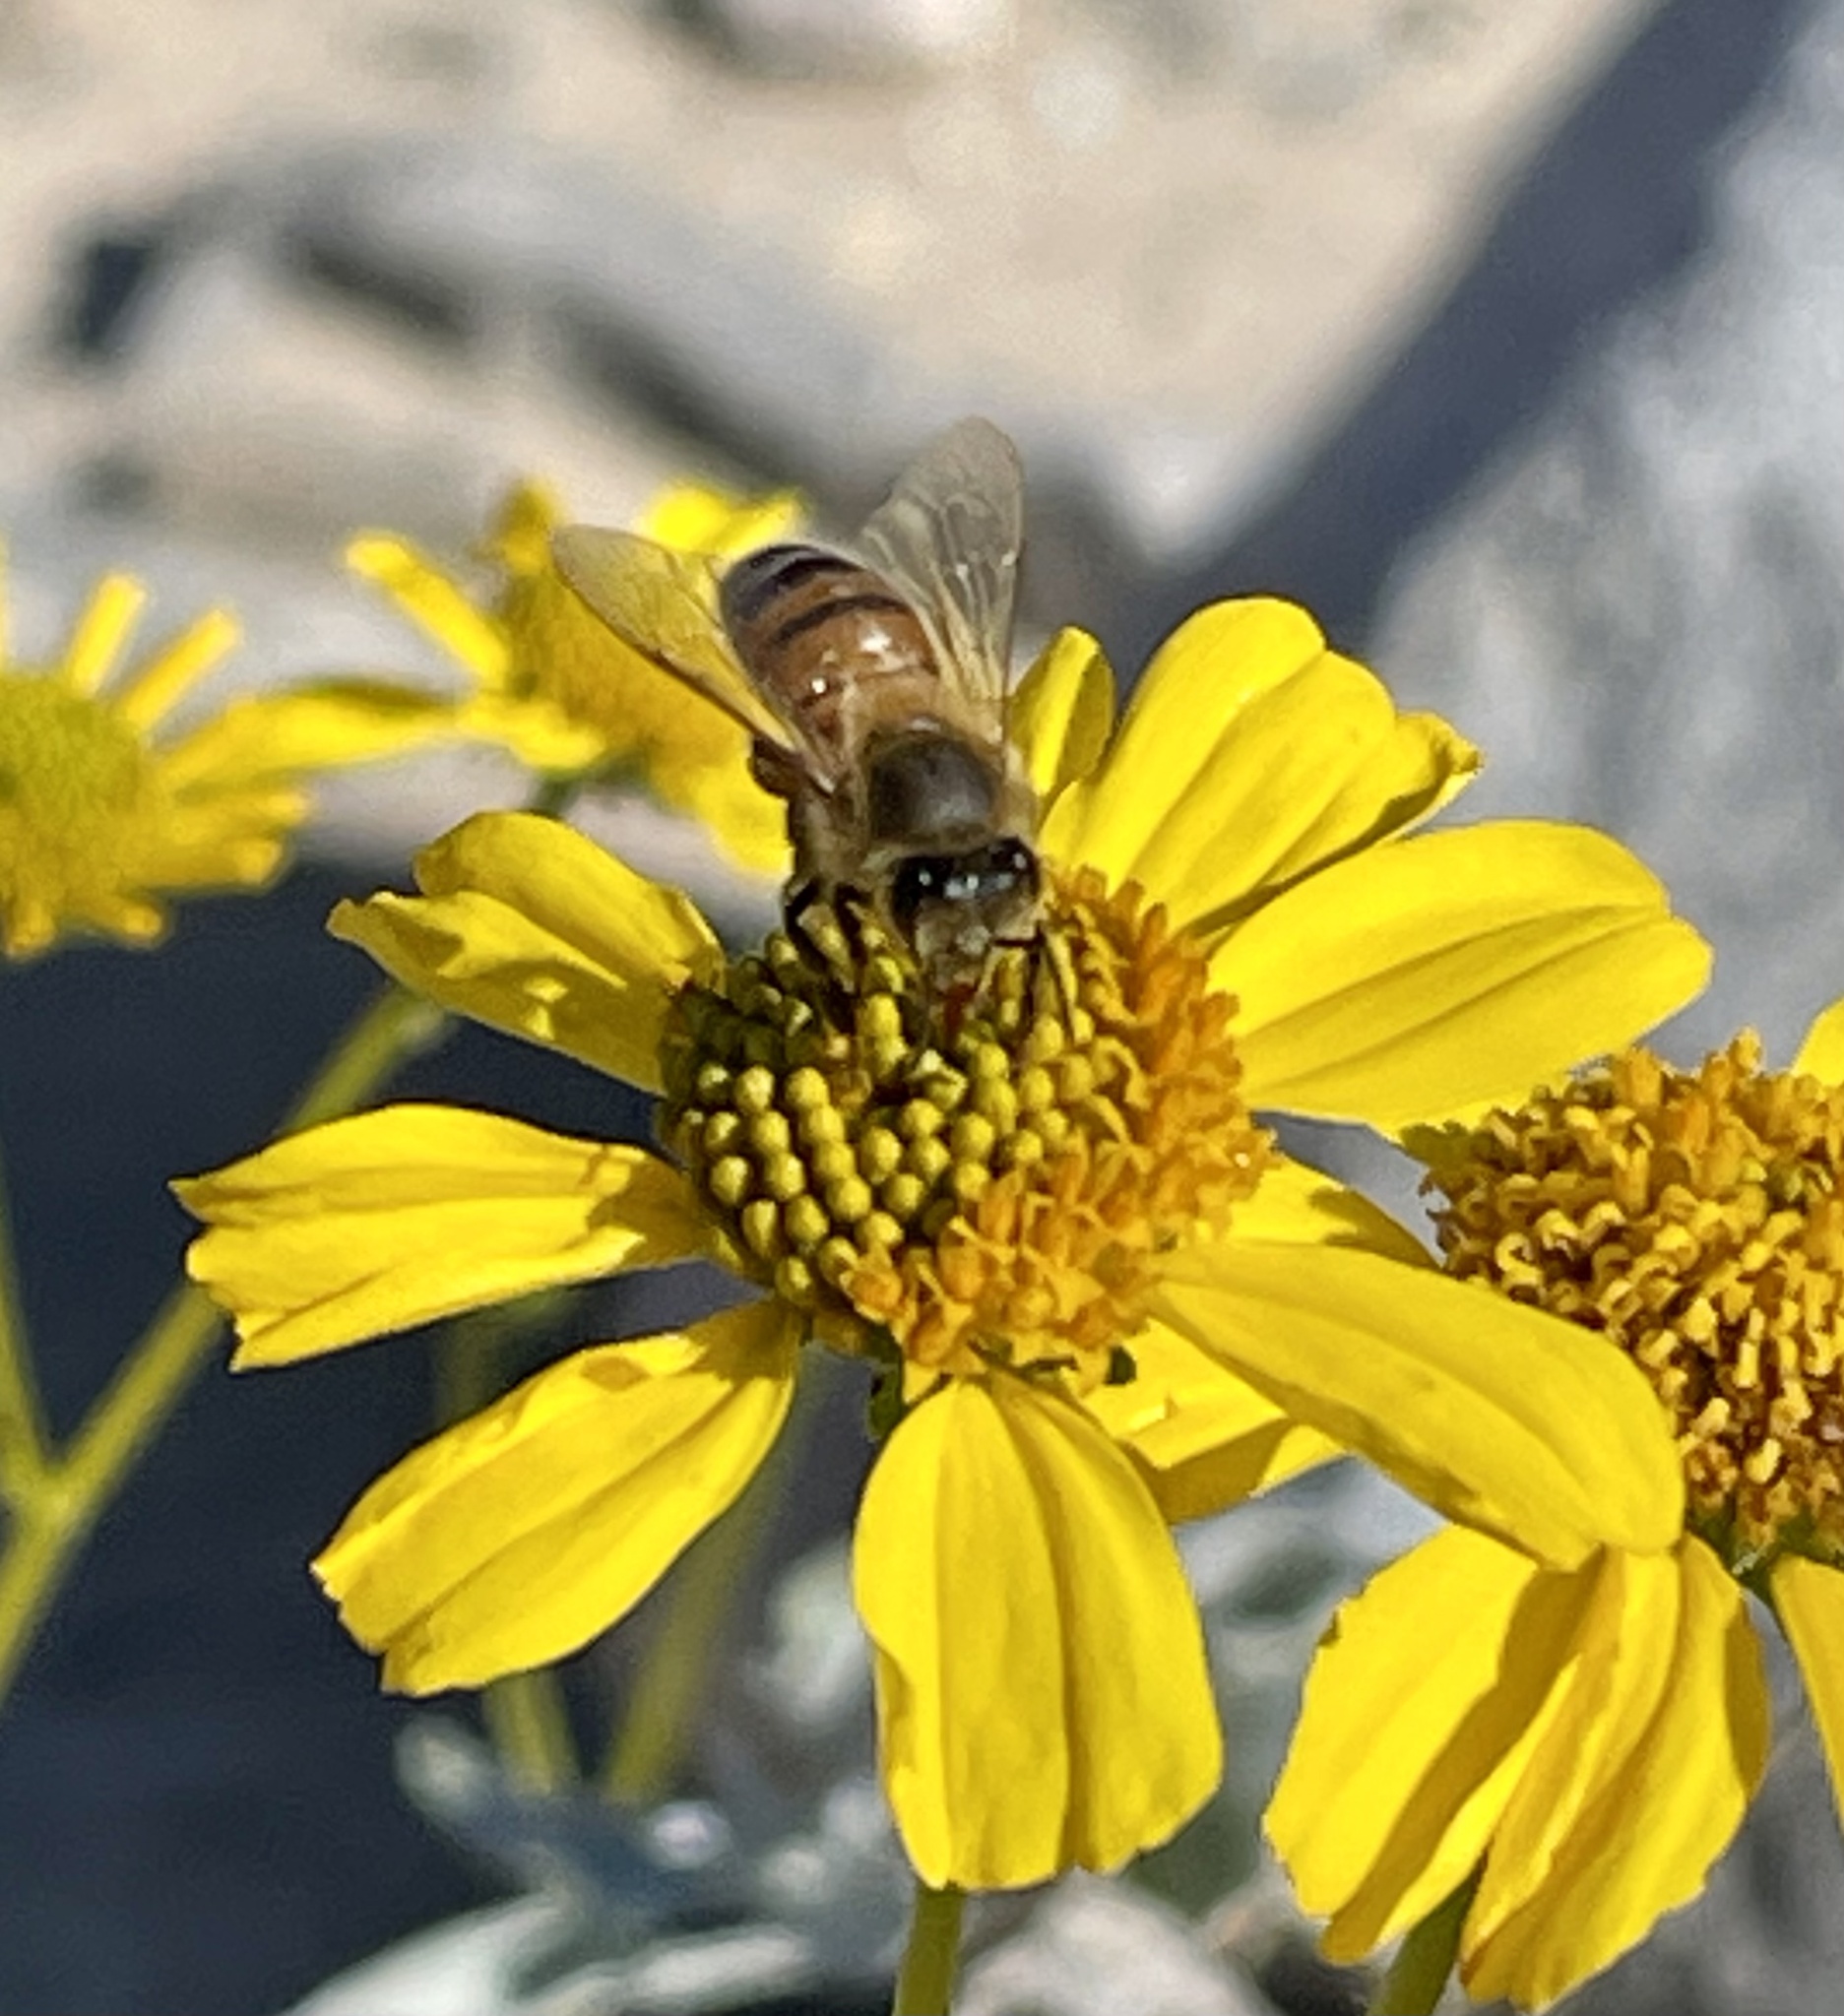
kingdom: Animalia
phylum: Arthropoda
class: Insecta
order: Hymenoptera
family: Apidae
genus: Apis
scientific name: Apis mellifera
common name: Honey bee
